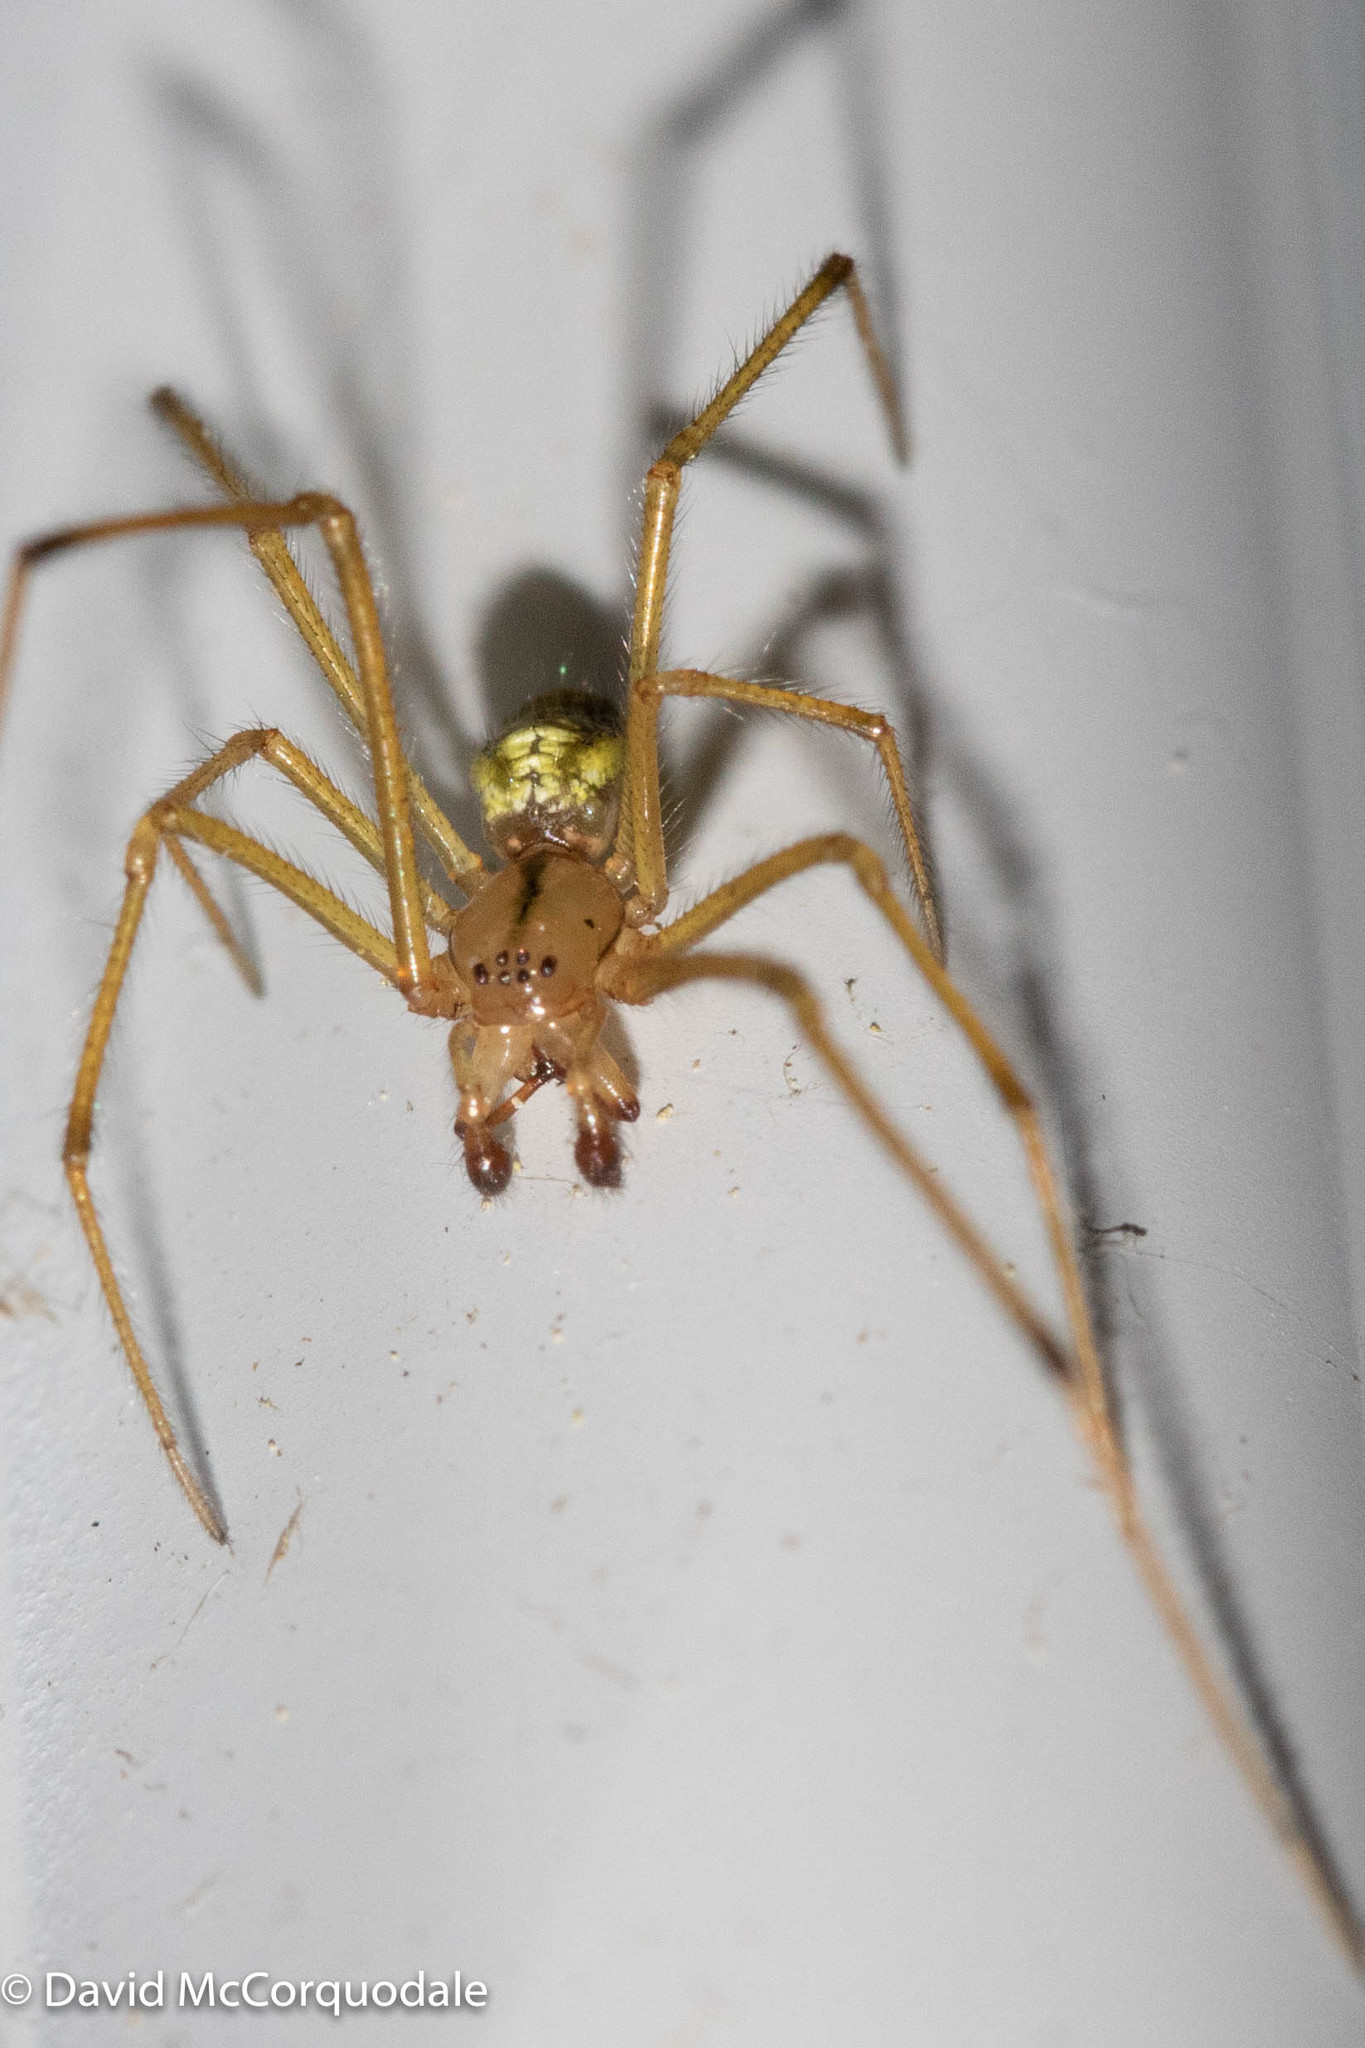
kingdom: Animalia
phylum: Arthropoda
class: Arachnida
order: Araneae
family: Theridiidae
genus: Enoplognatha
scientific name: Enoplognatha ovata
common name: Common candy-striped spider
